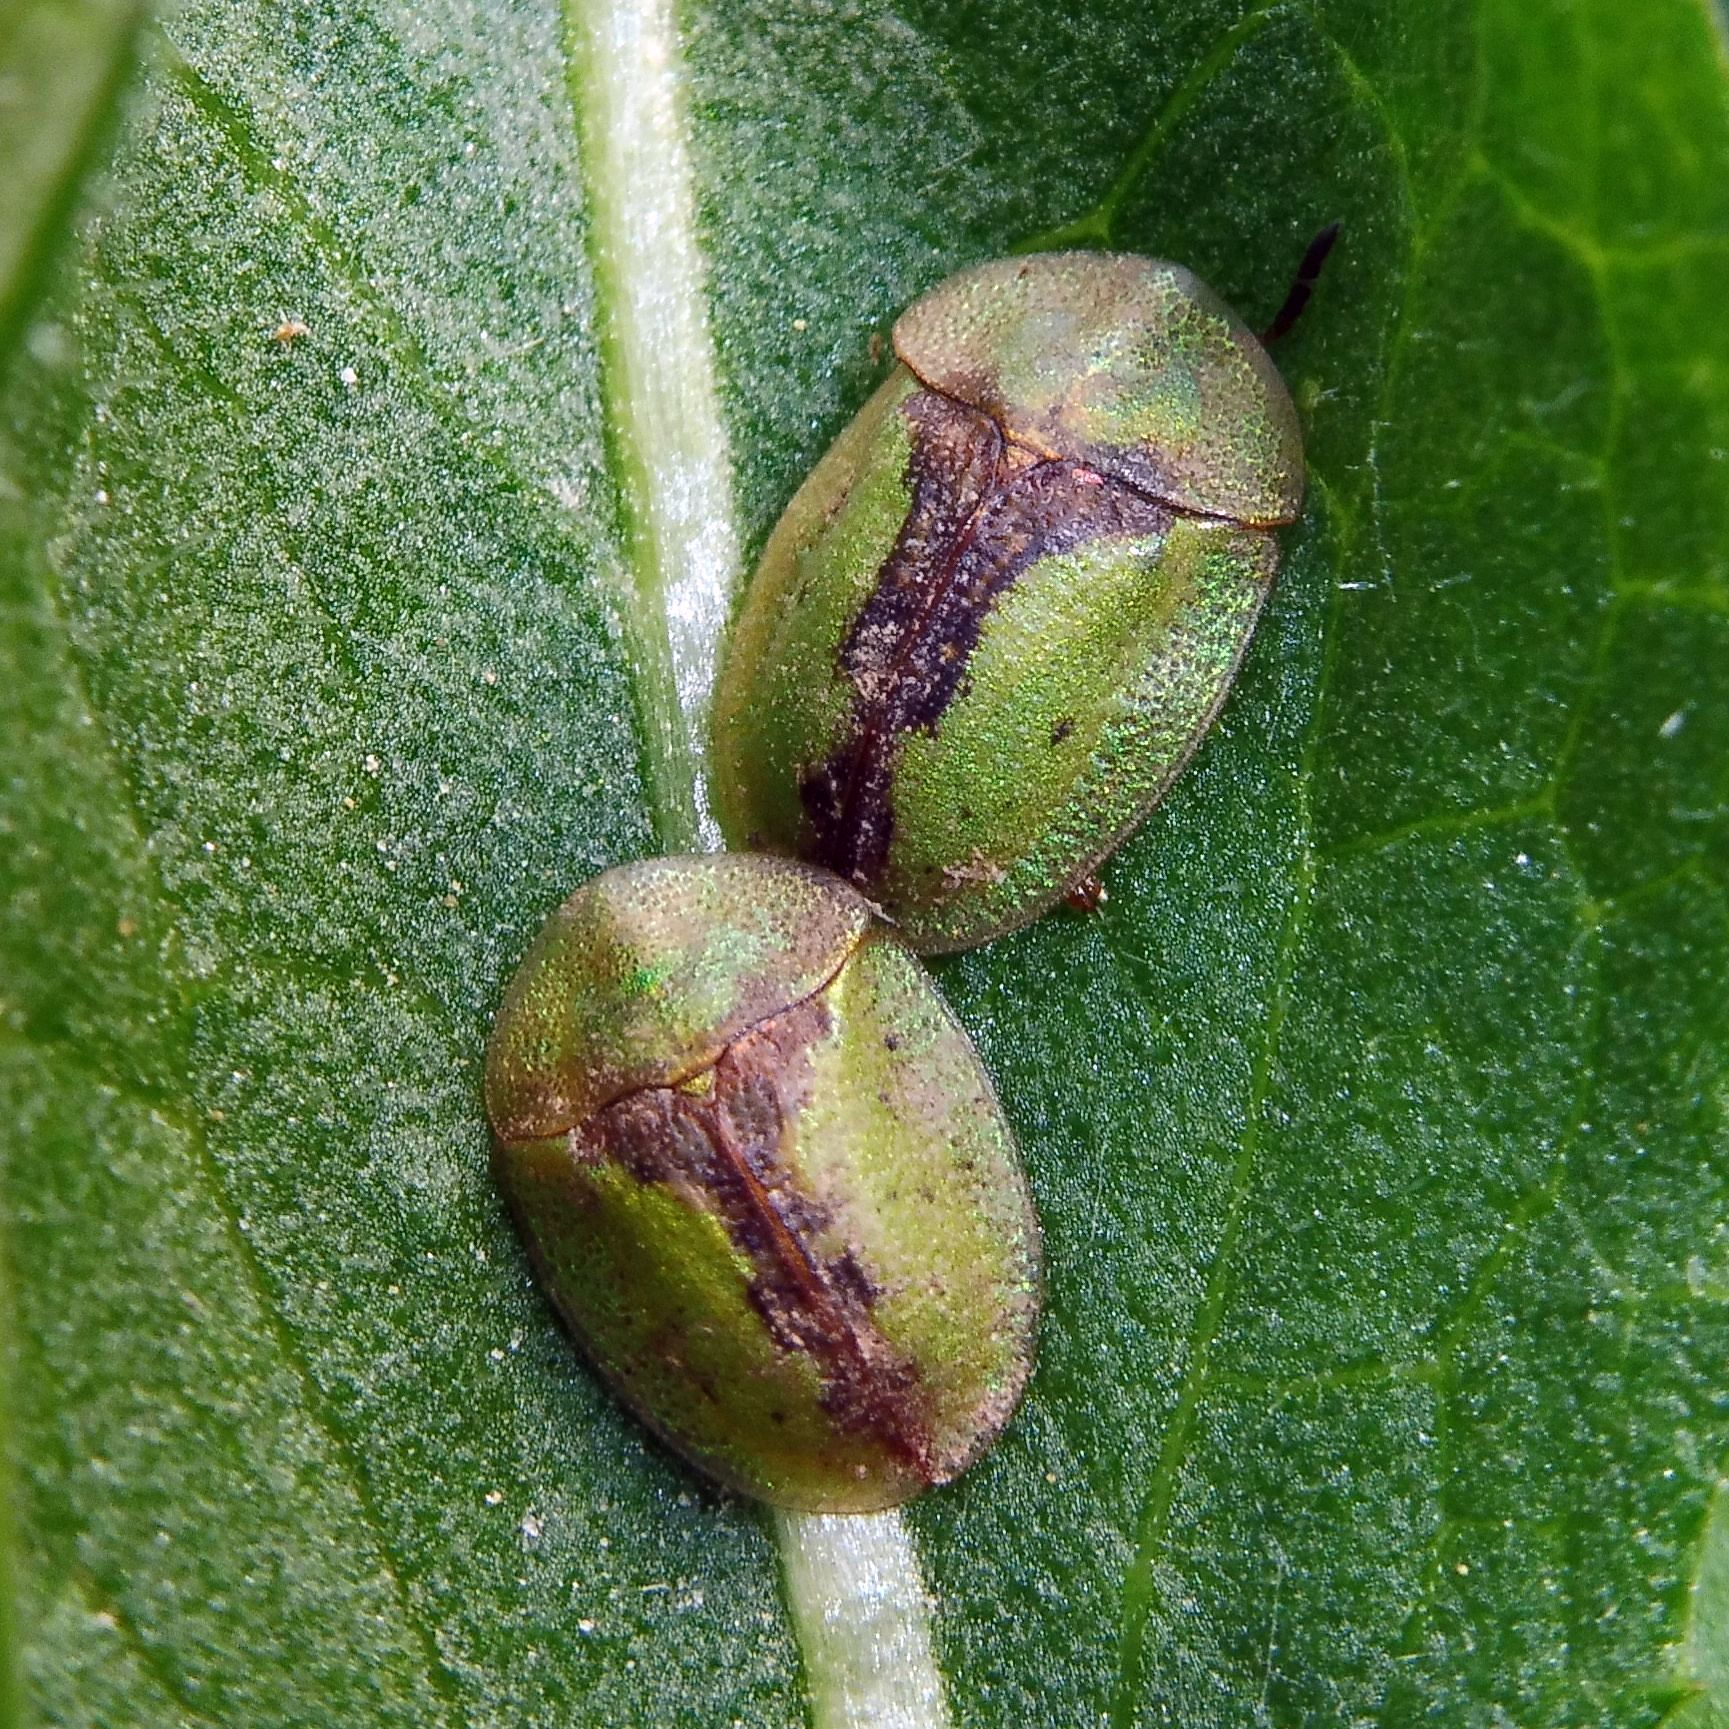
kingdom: Animalia
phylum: Arthropoda
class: Insecta
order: Coleoptera
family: Chrysomelidae
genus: Cassida
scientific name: Cassida vibex
